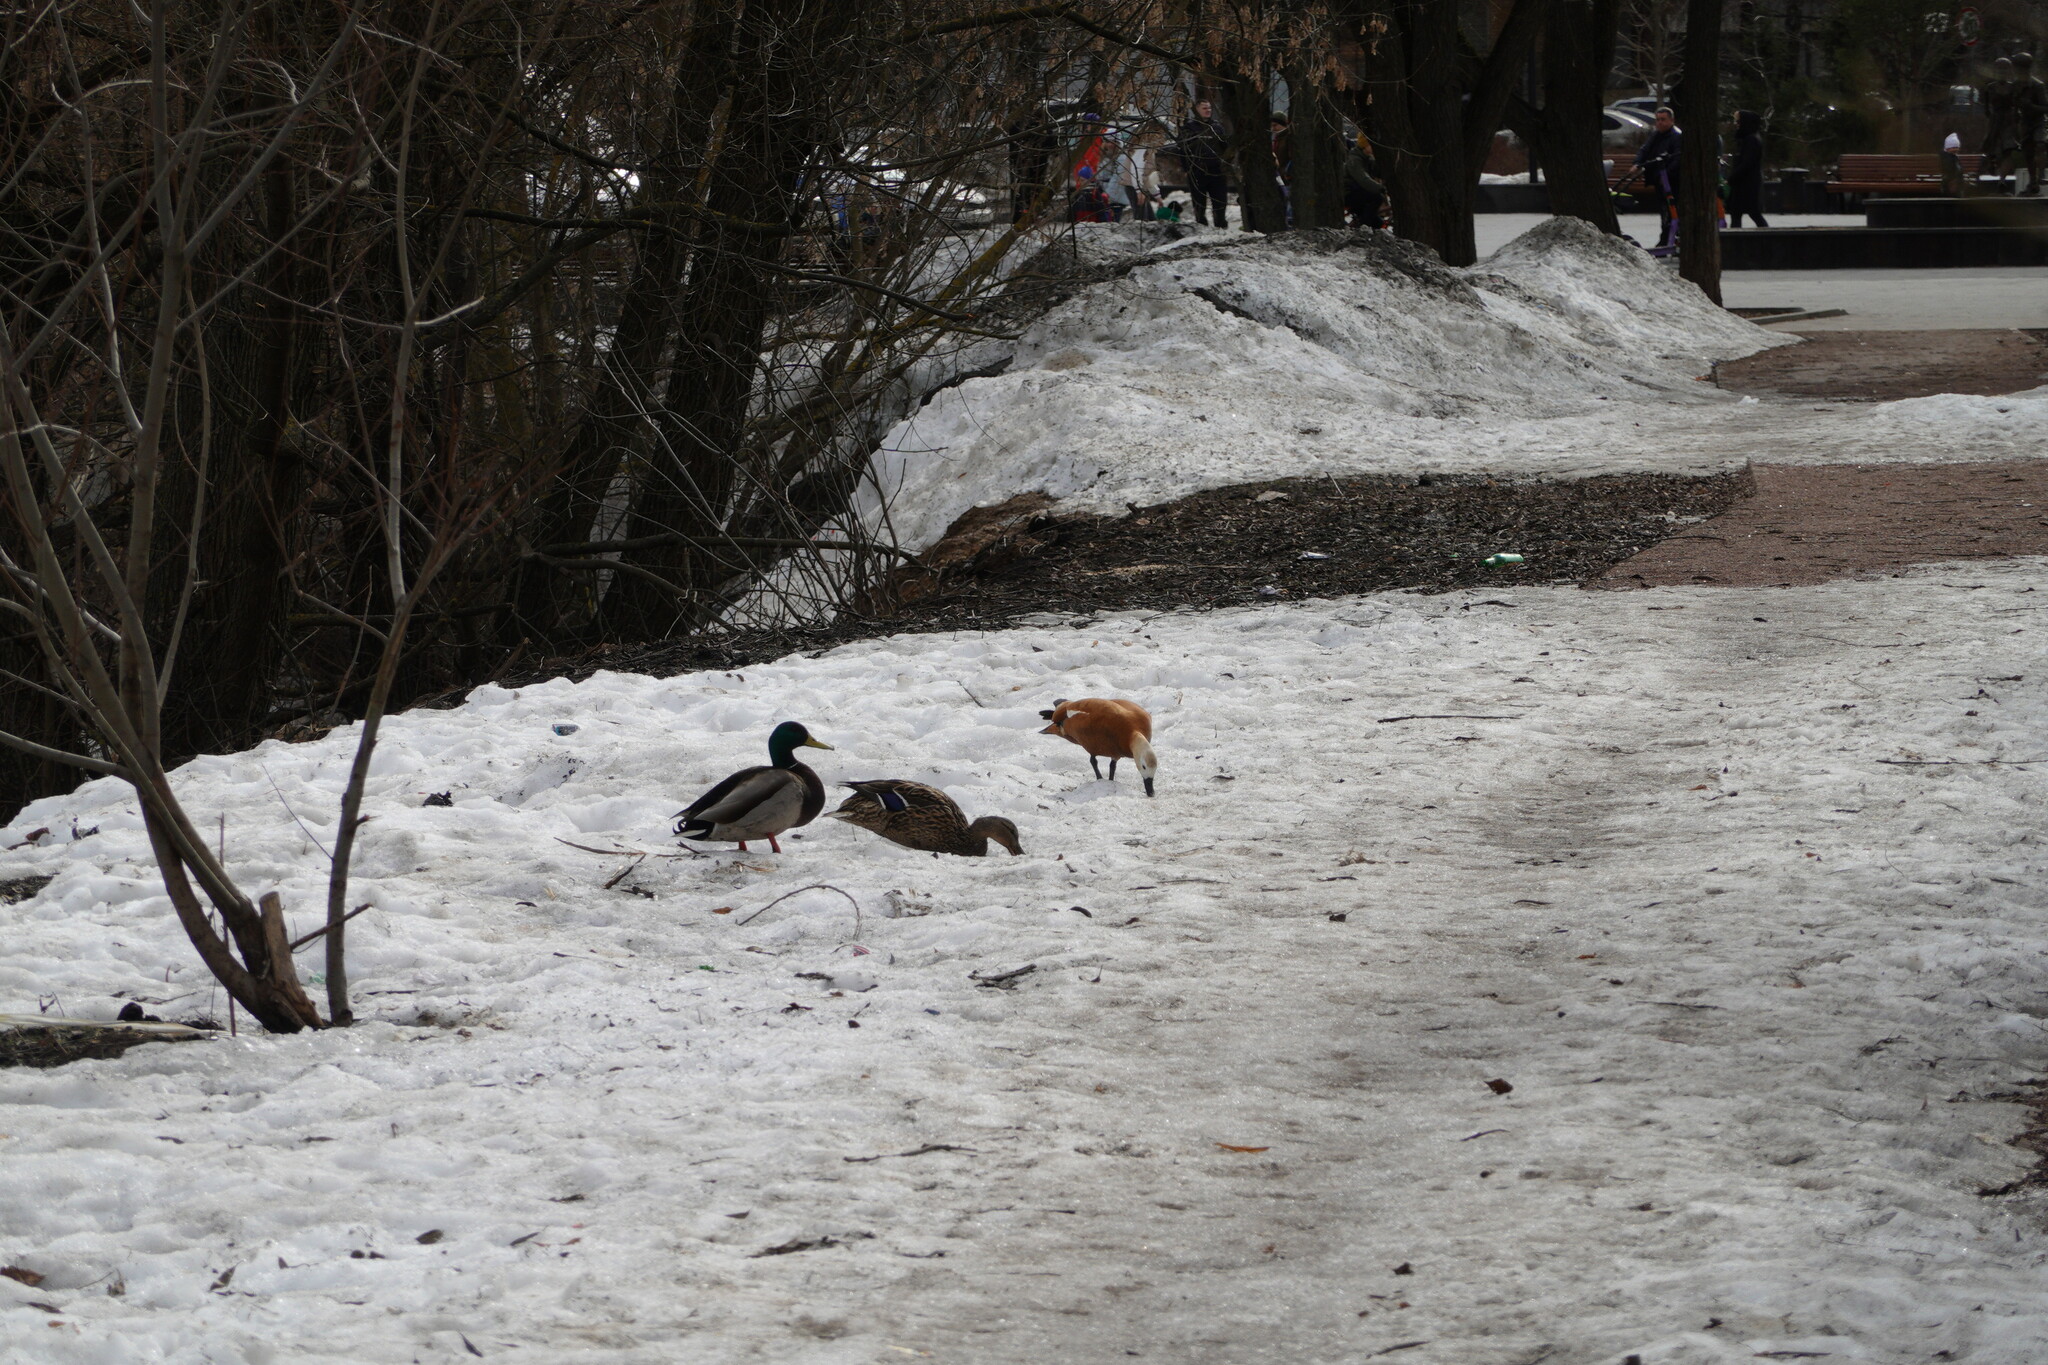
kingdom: Animalia
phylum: Chordata
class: Aves
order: Anseriformes
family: Anatidae
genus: Tadorna
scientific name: Tadorna ferruginea
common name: Ruddy shelduck
